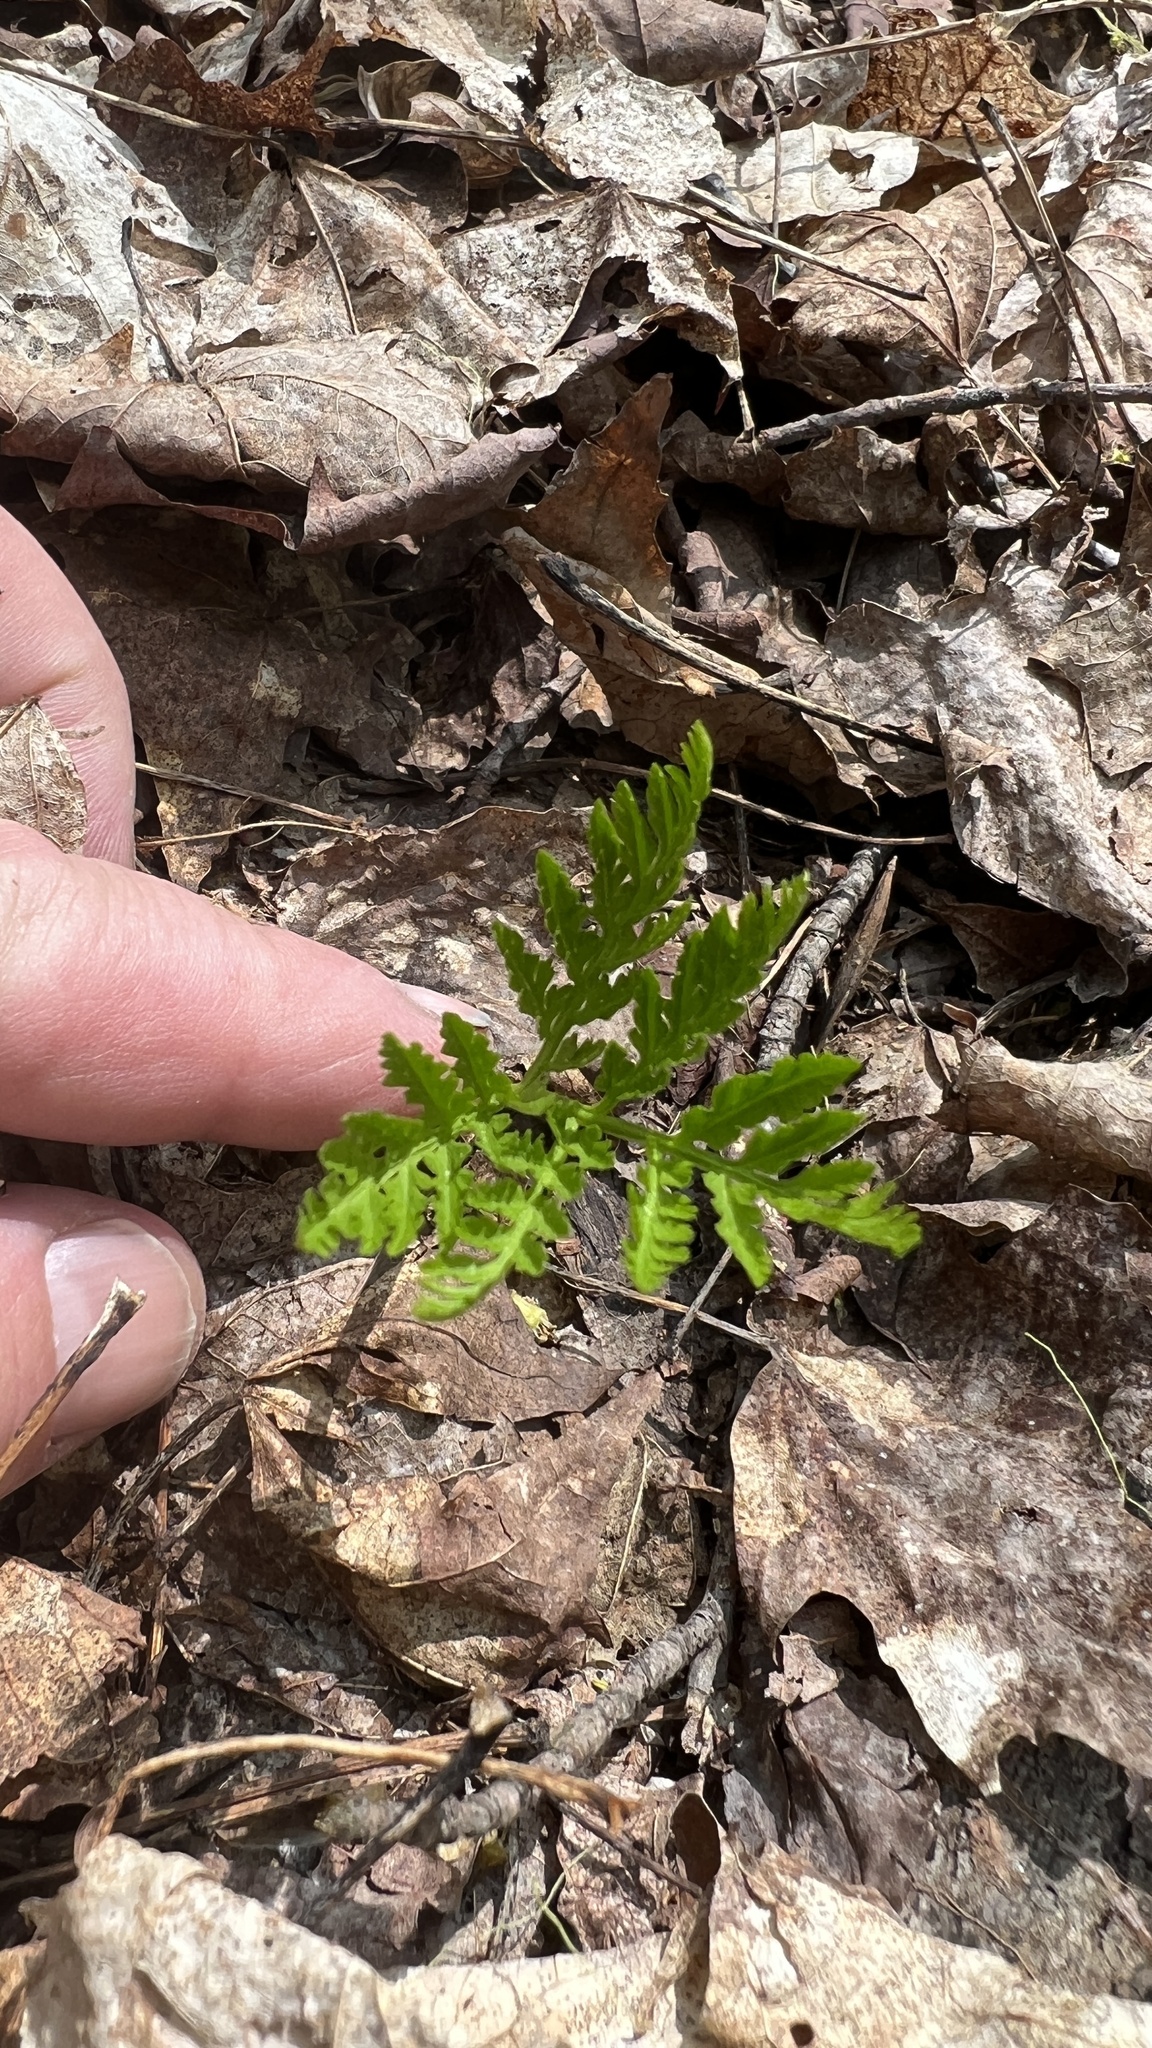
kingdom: Plantae
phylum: Tracheophyta
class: Polypodiopsida
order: Ophioglossales
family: Ophioglossaceae
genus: Botrypus
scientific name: Botrypus virginianus
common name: Common grapefern
